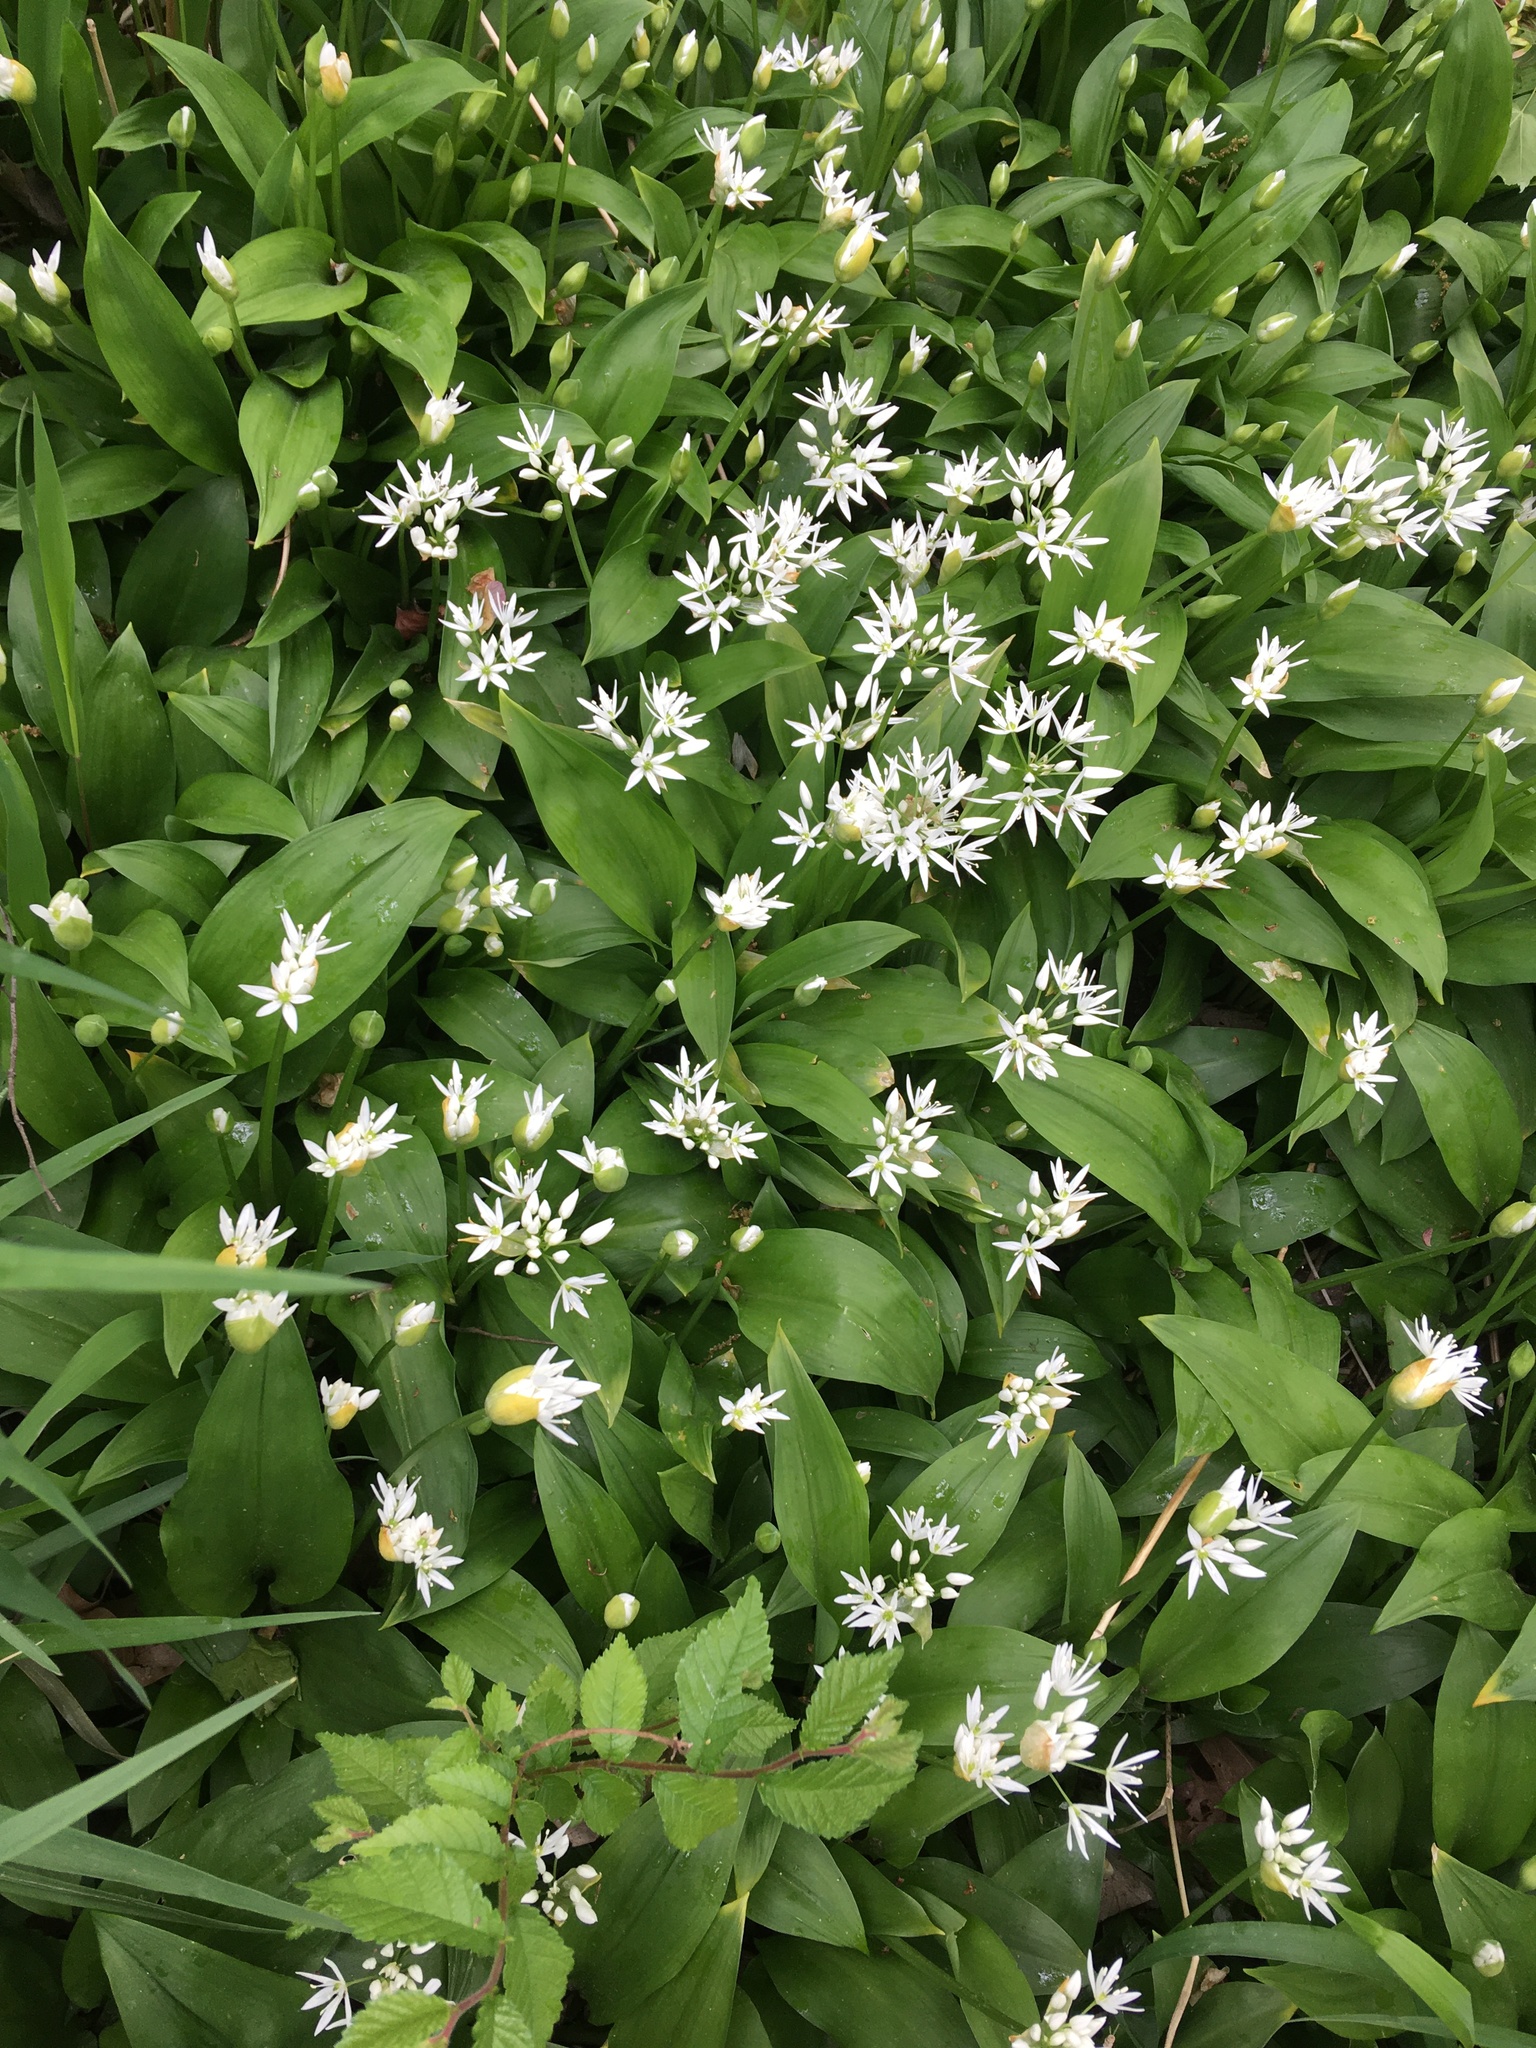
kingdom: Plantae
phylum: Tracheophyta
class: Liliopsida
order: Asparagales
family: Amaryllidaceae
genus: Allium
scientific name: Allium ursinum
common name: Ramsons
